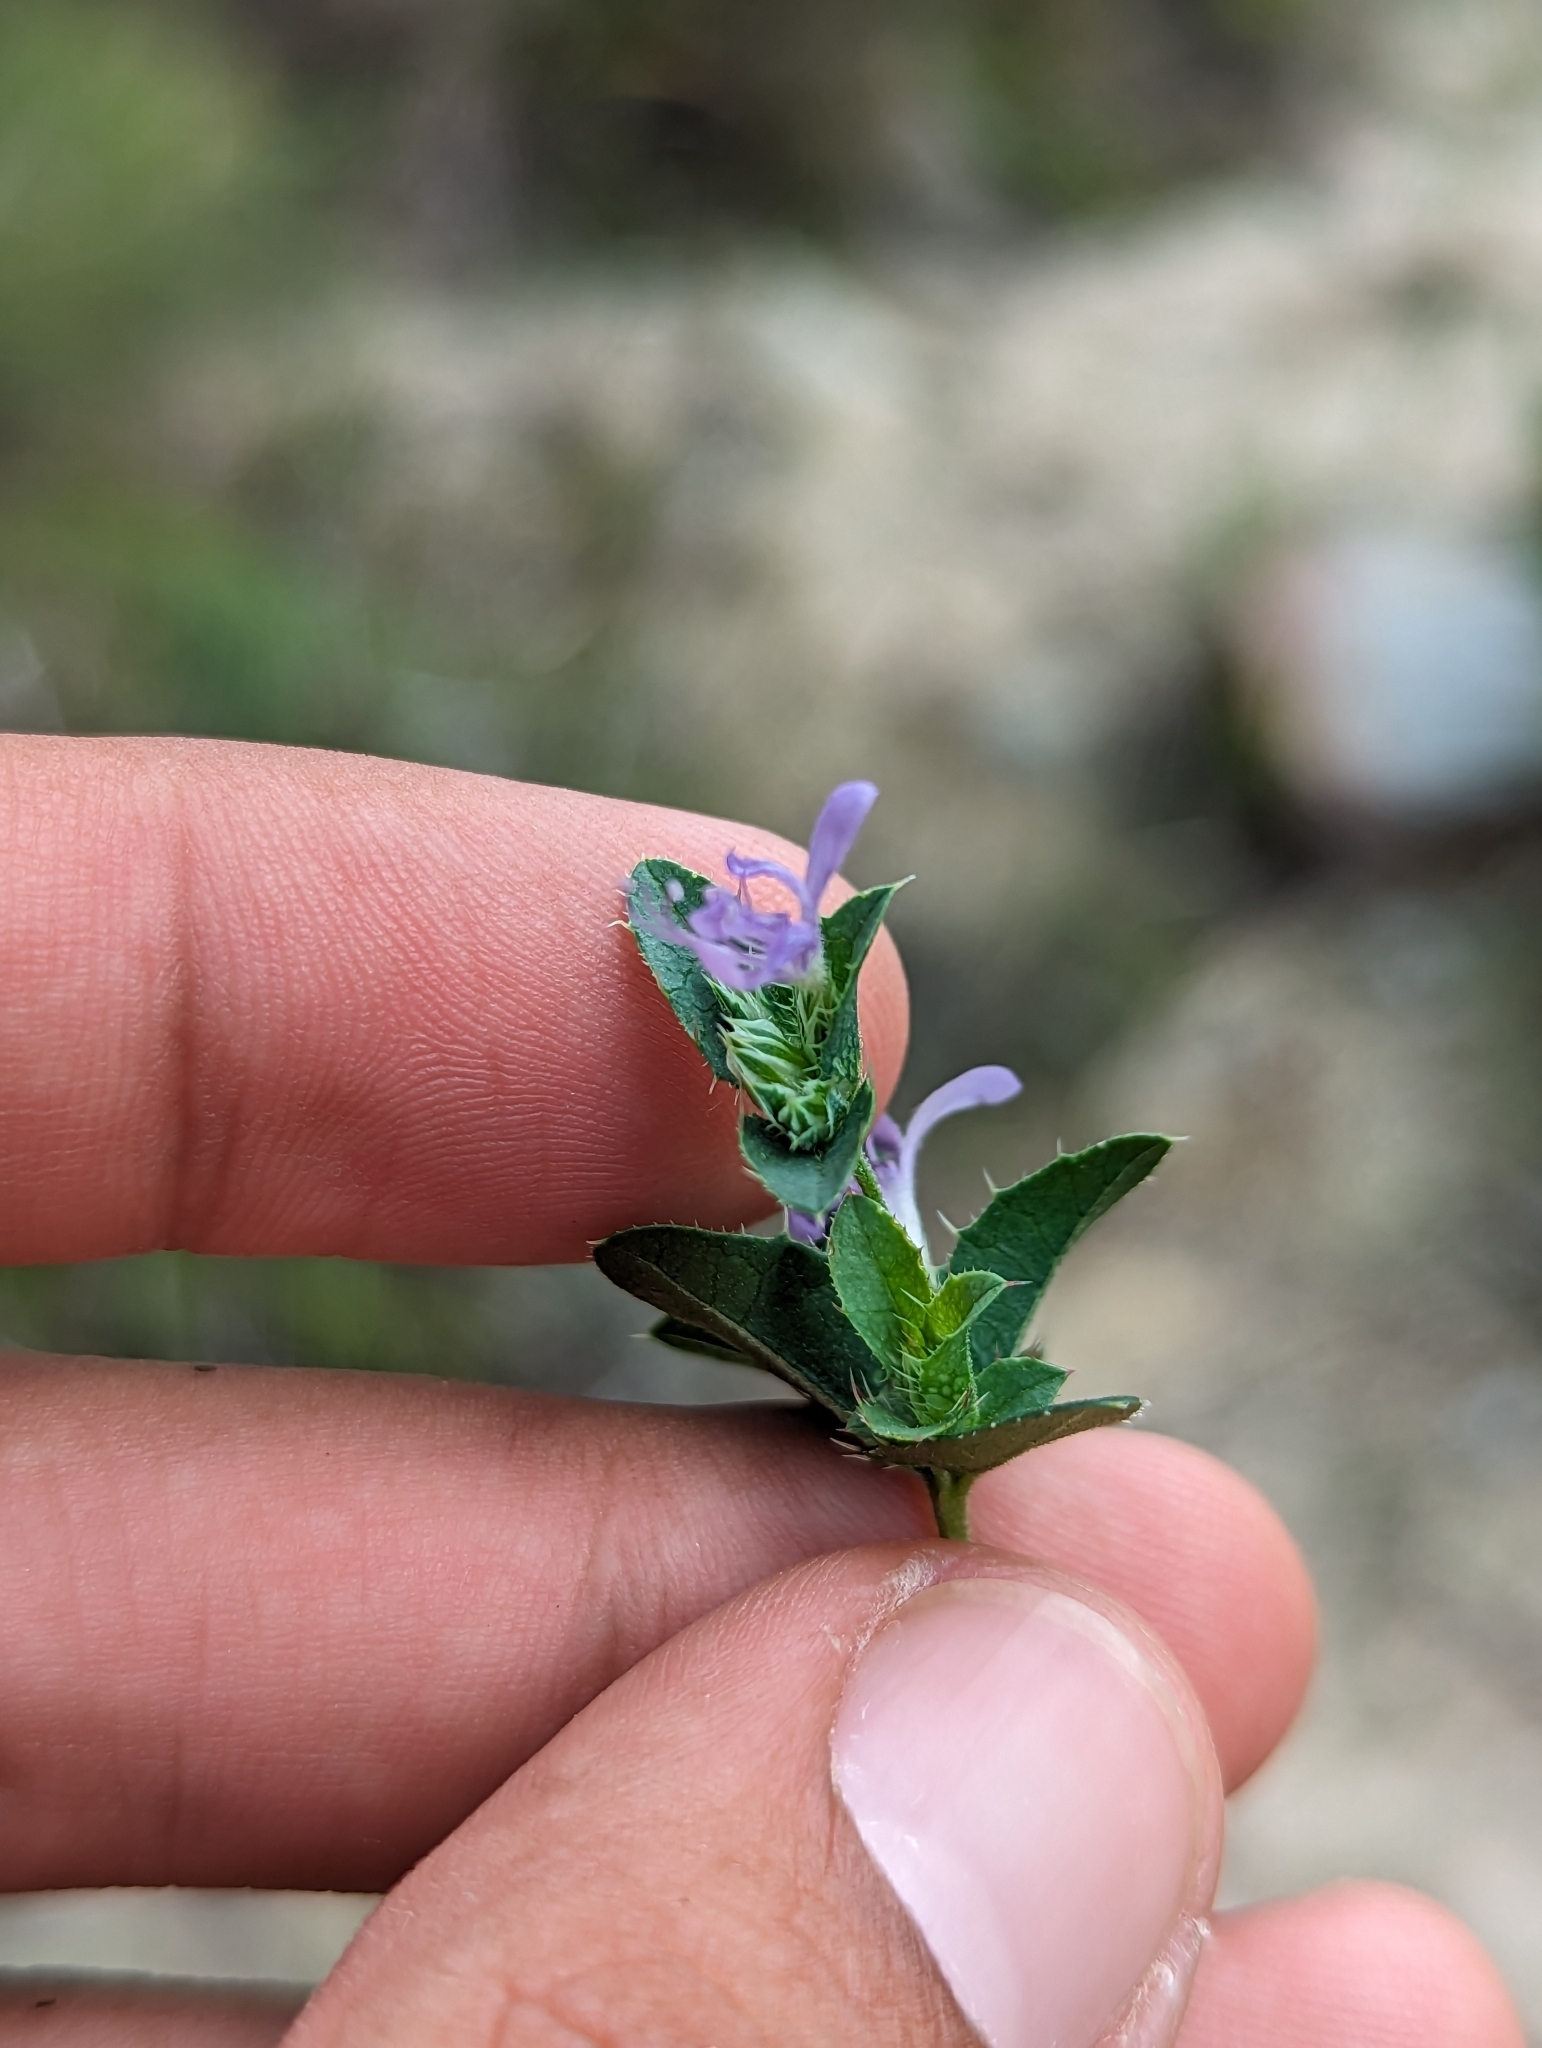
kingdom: Plantae
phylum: Tracheophyta
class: Magnoliopsida
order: Ericales
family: Polemoniaceae
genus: Loeselia
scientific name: Loeselia ciliata
